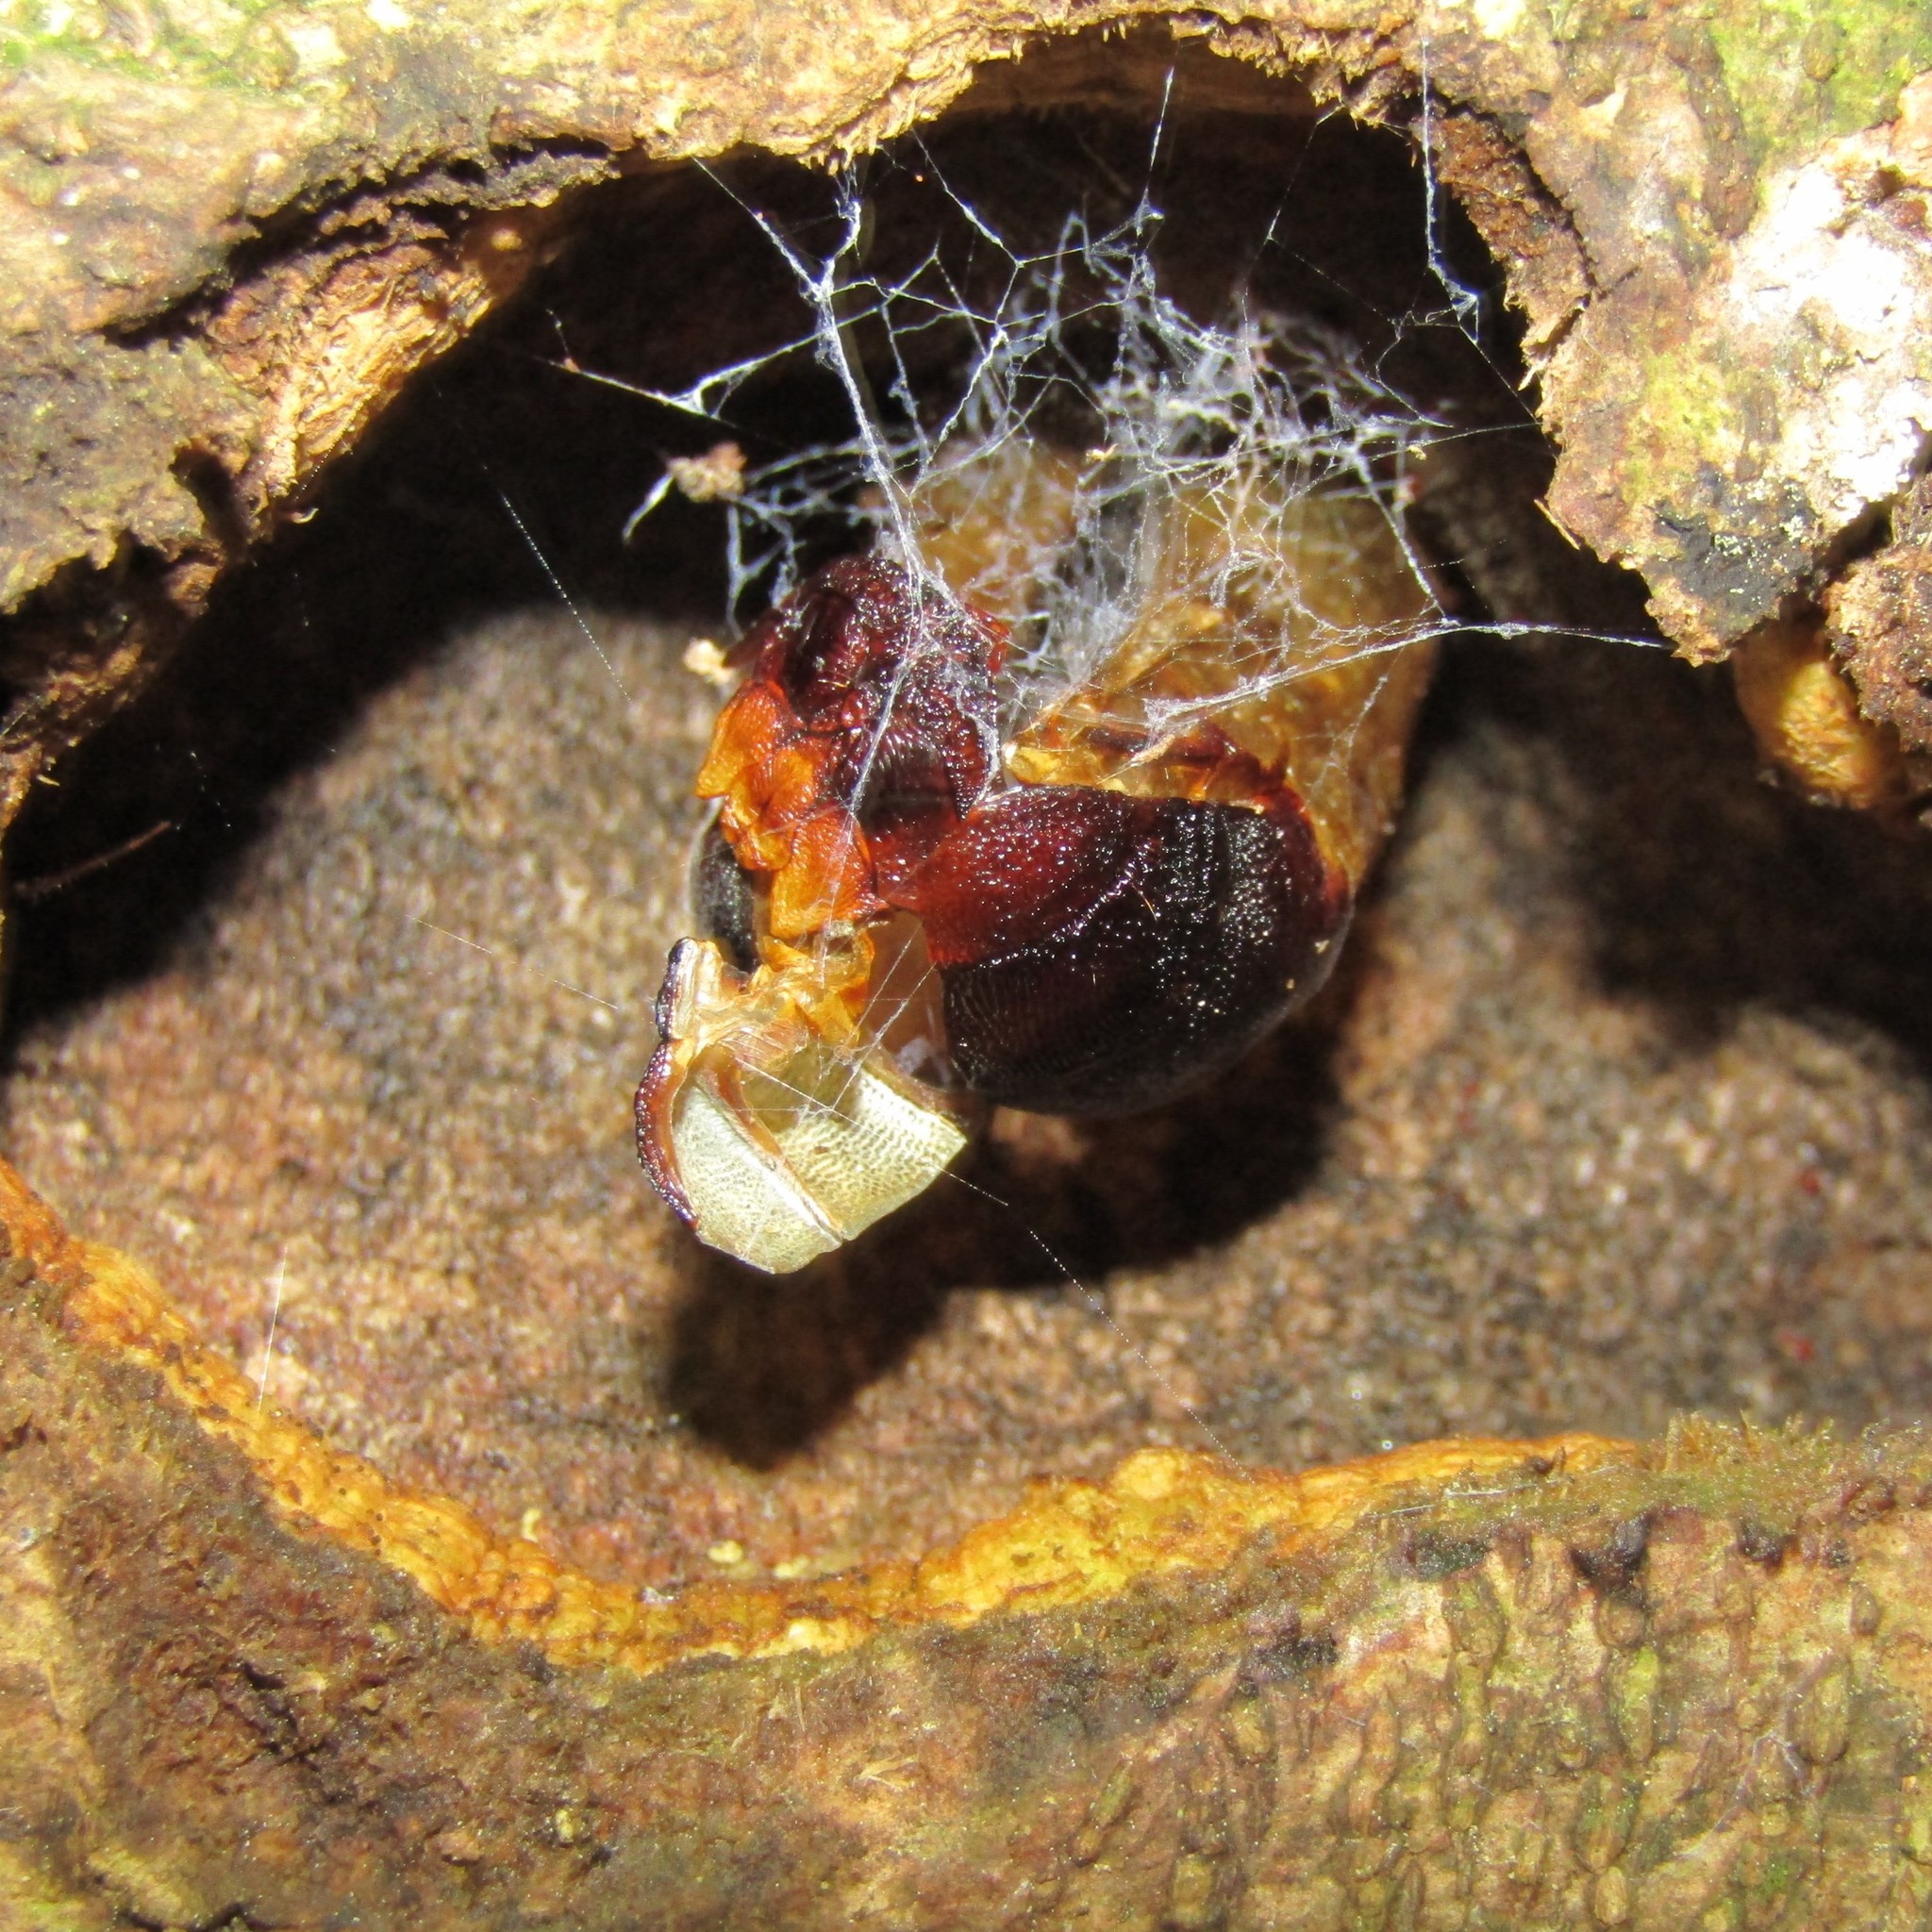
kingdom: Animalia
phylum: Arthropoda
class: Insecta
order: Lepidoptera
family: Hepialidae
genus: Aenetus
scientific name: Aenetus virescens
